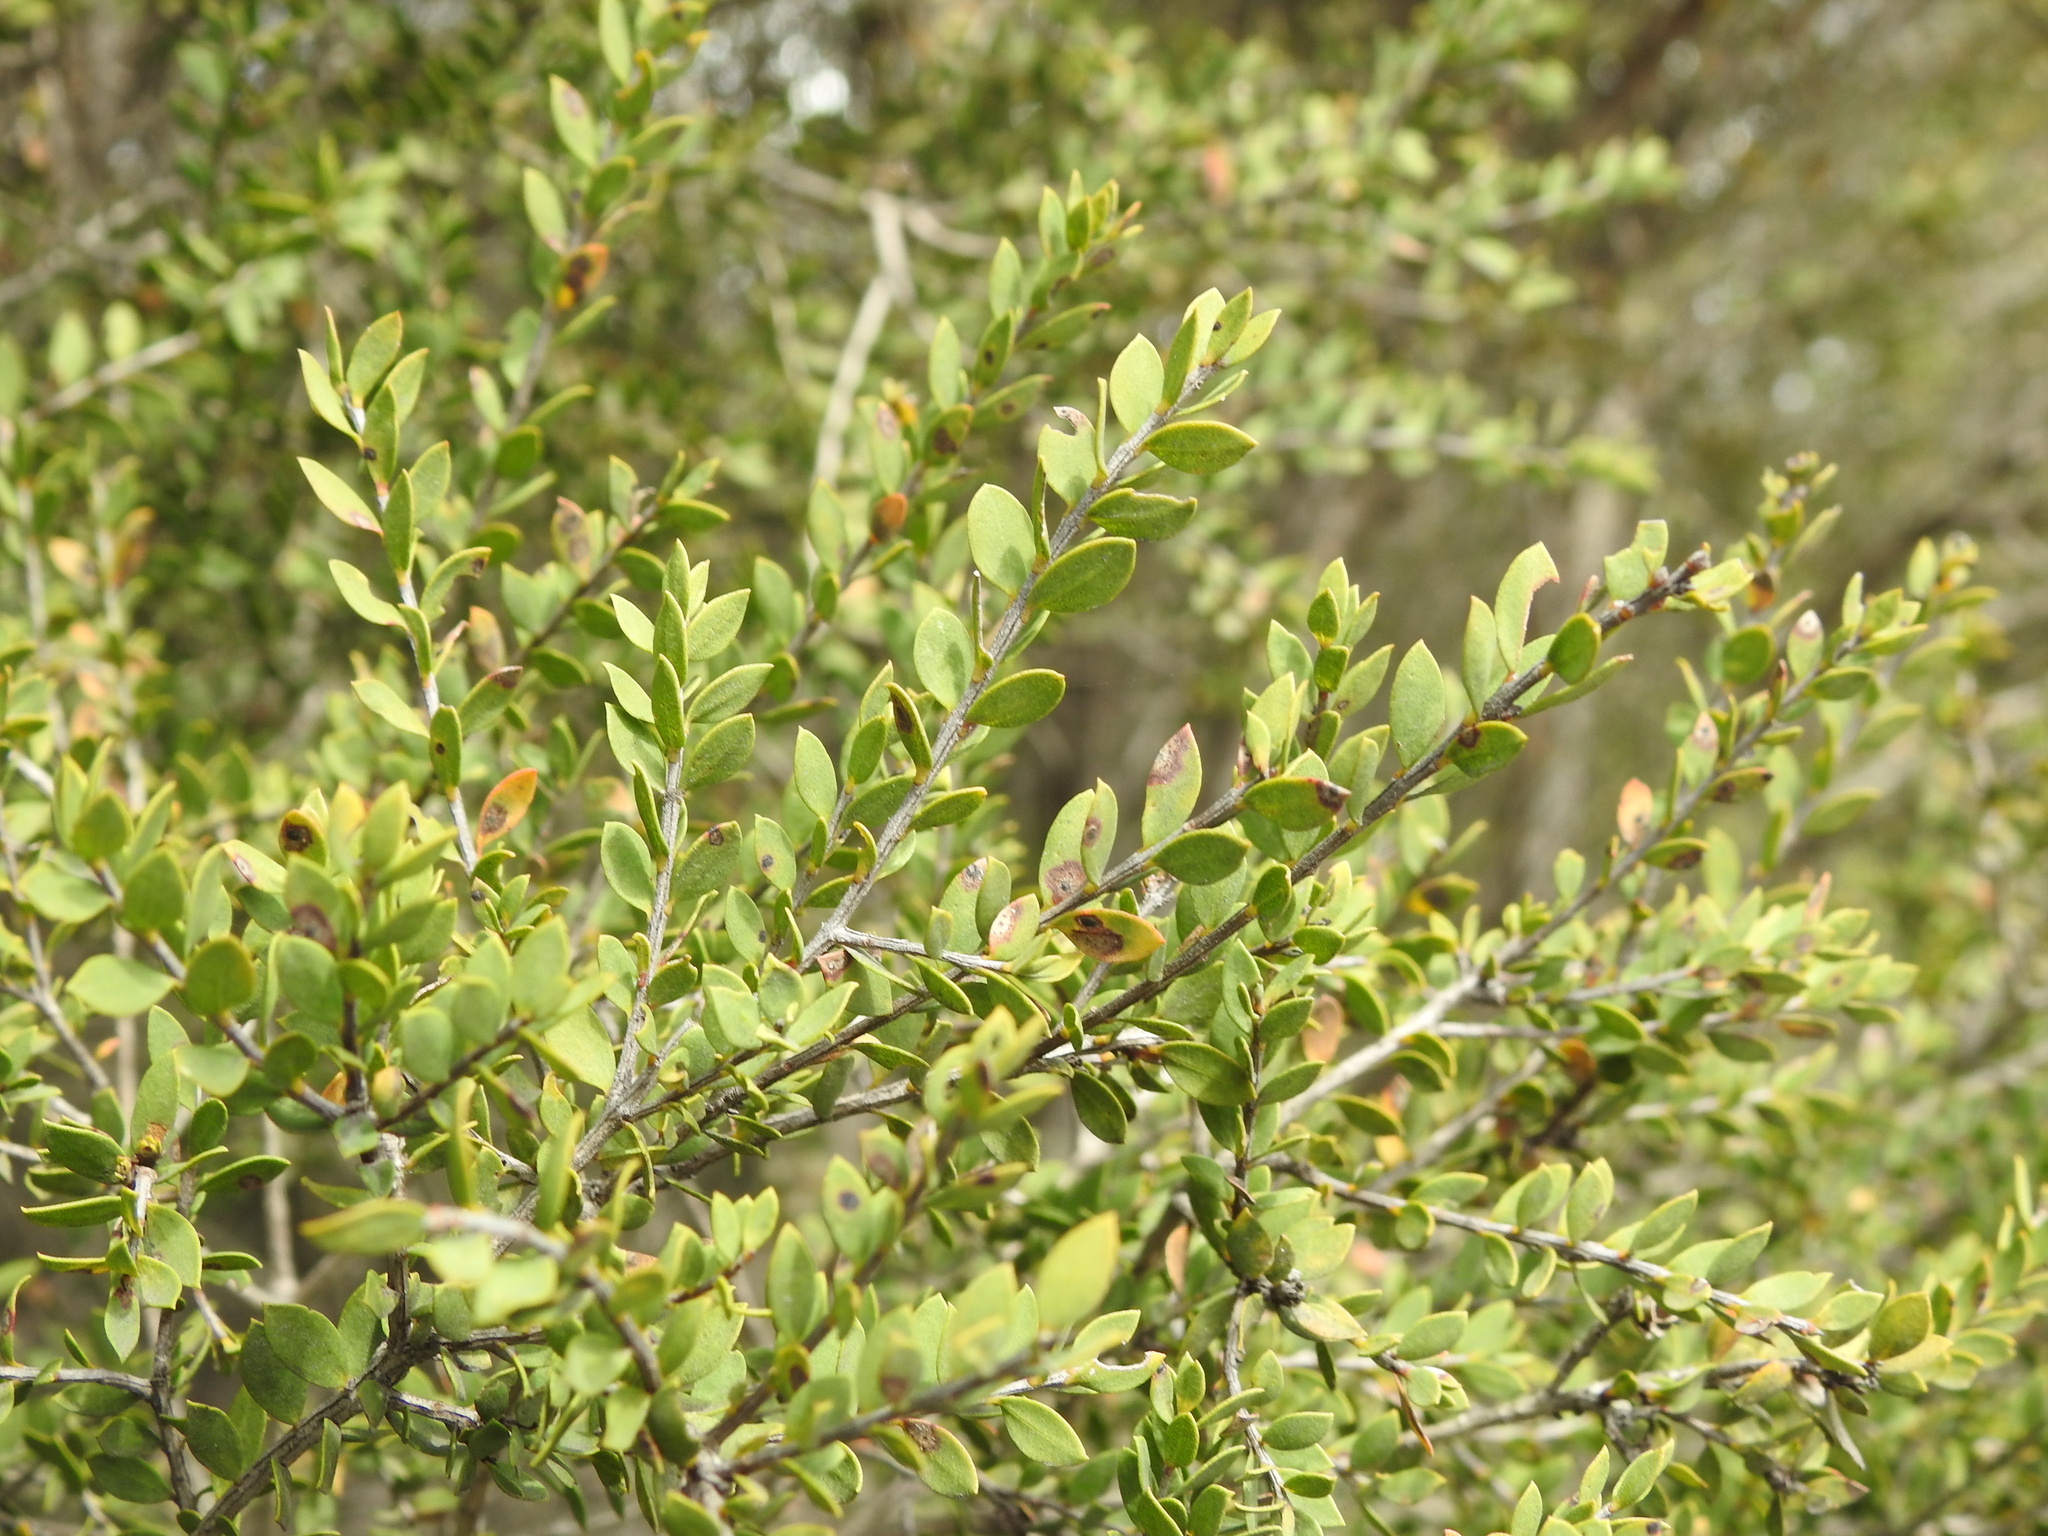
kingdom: Plantae
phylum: Tracheophyta
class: Magnoliopsida
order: Myrtales
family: Myrtaceae
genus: Melaleuca
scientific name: Melaleuca cheelii
